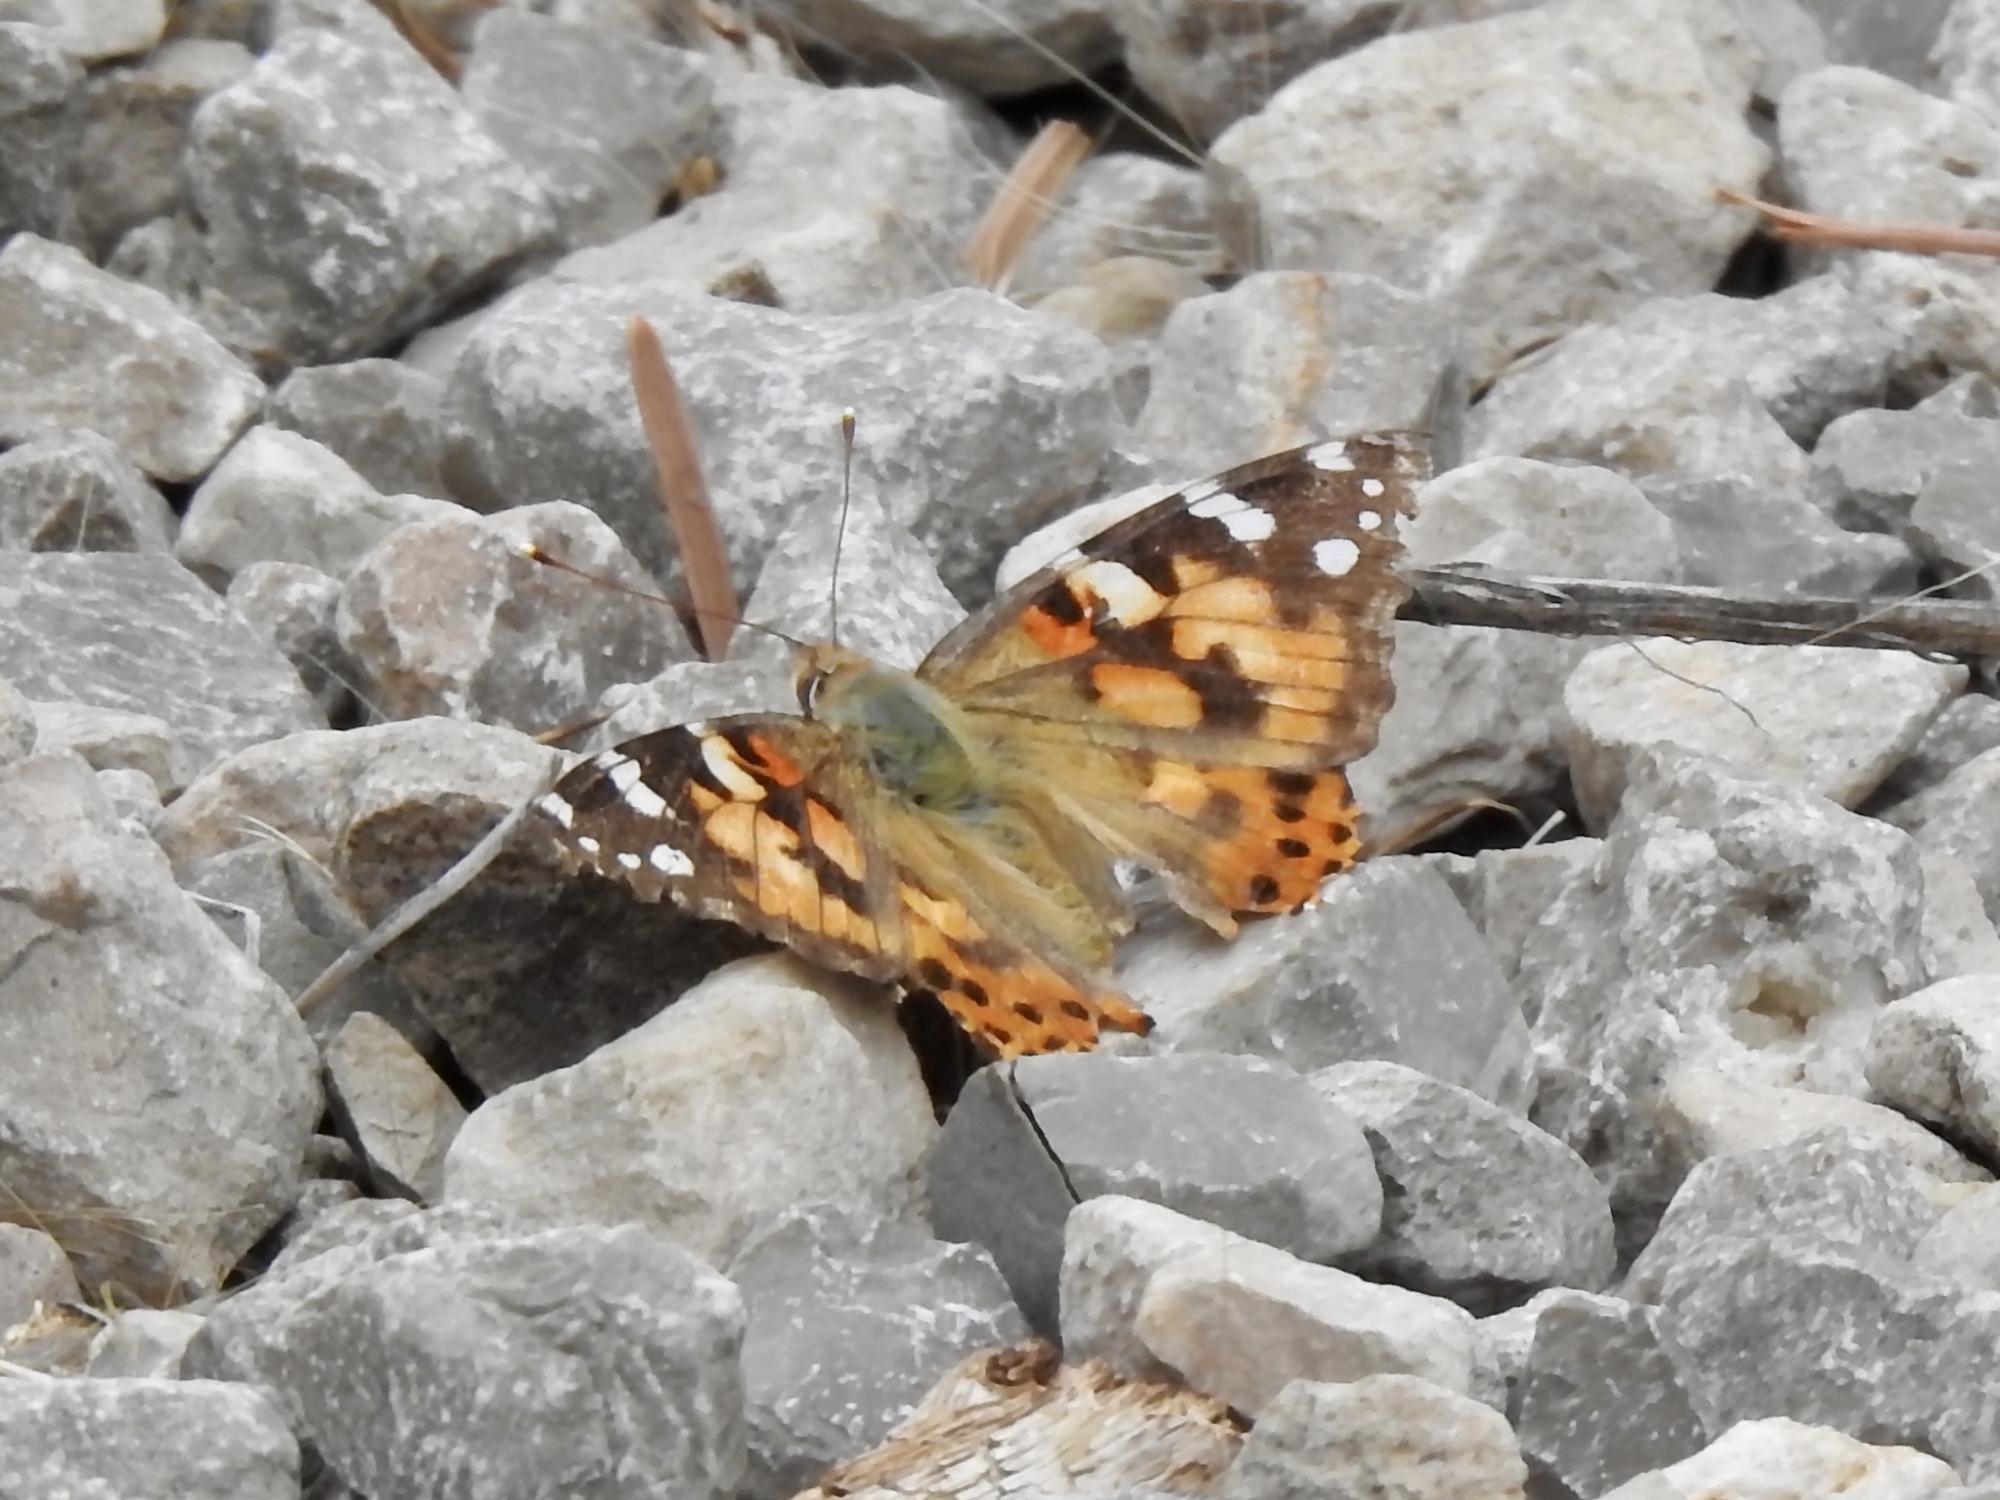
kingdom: Animalia
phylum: Arthropoda
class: Insecta
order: Lepidoptera
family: Nymphalidae
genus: Vanessa
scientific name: Vanessa cardui
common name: Painted lady
